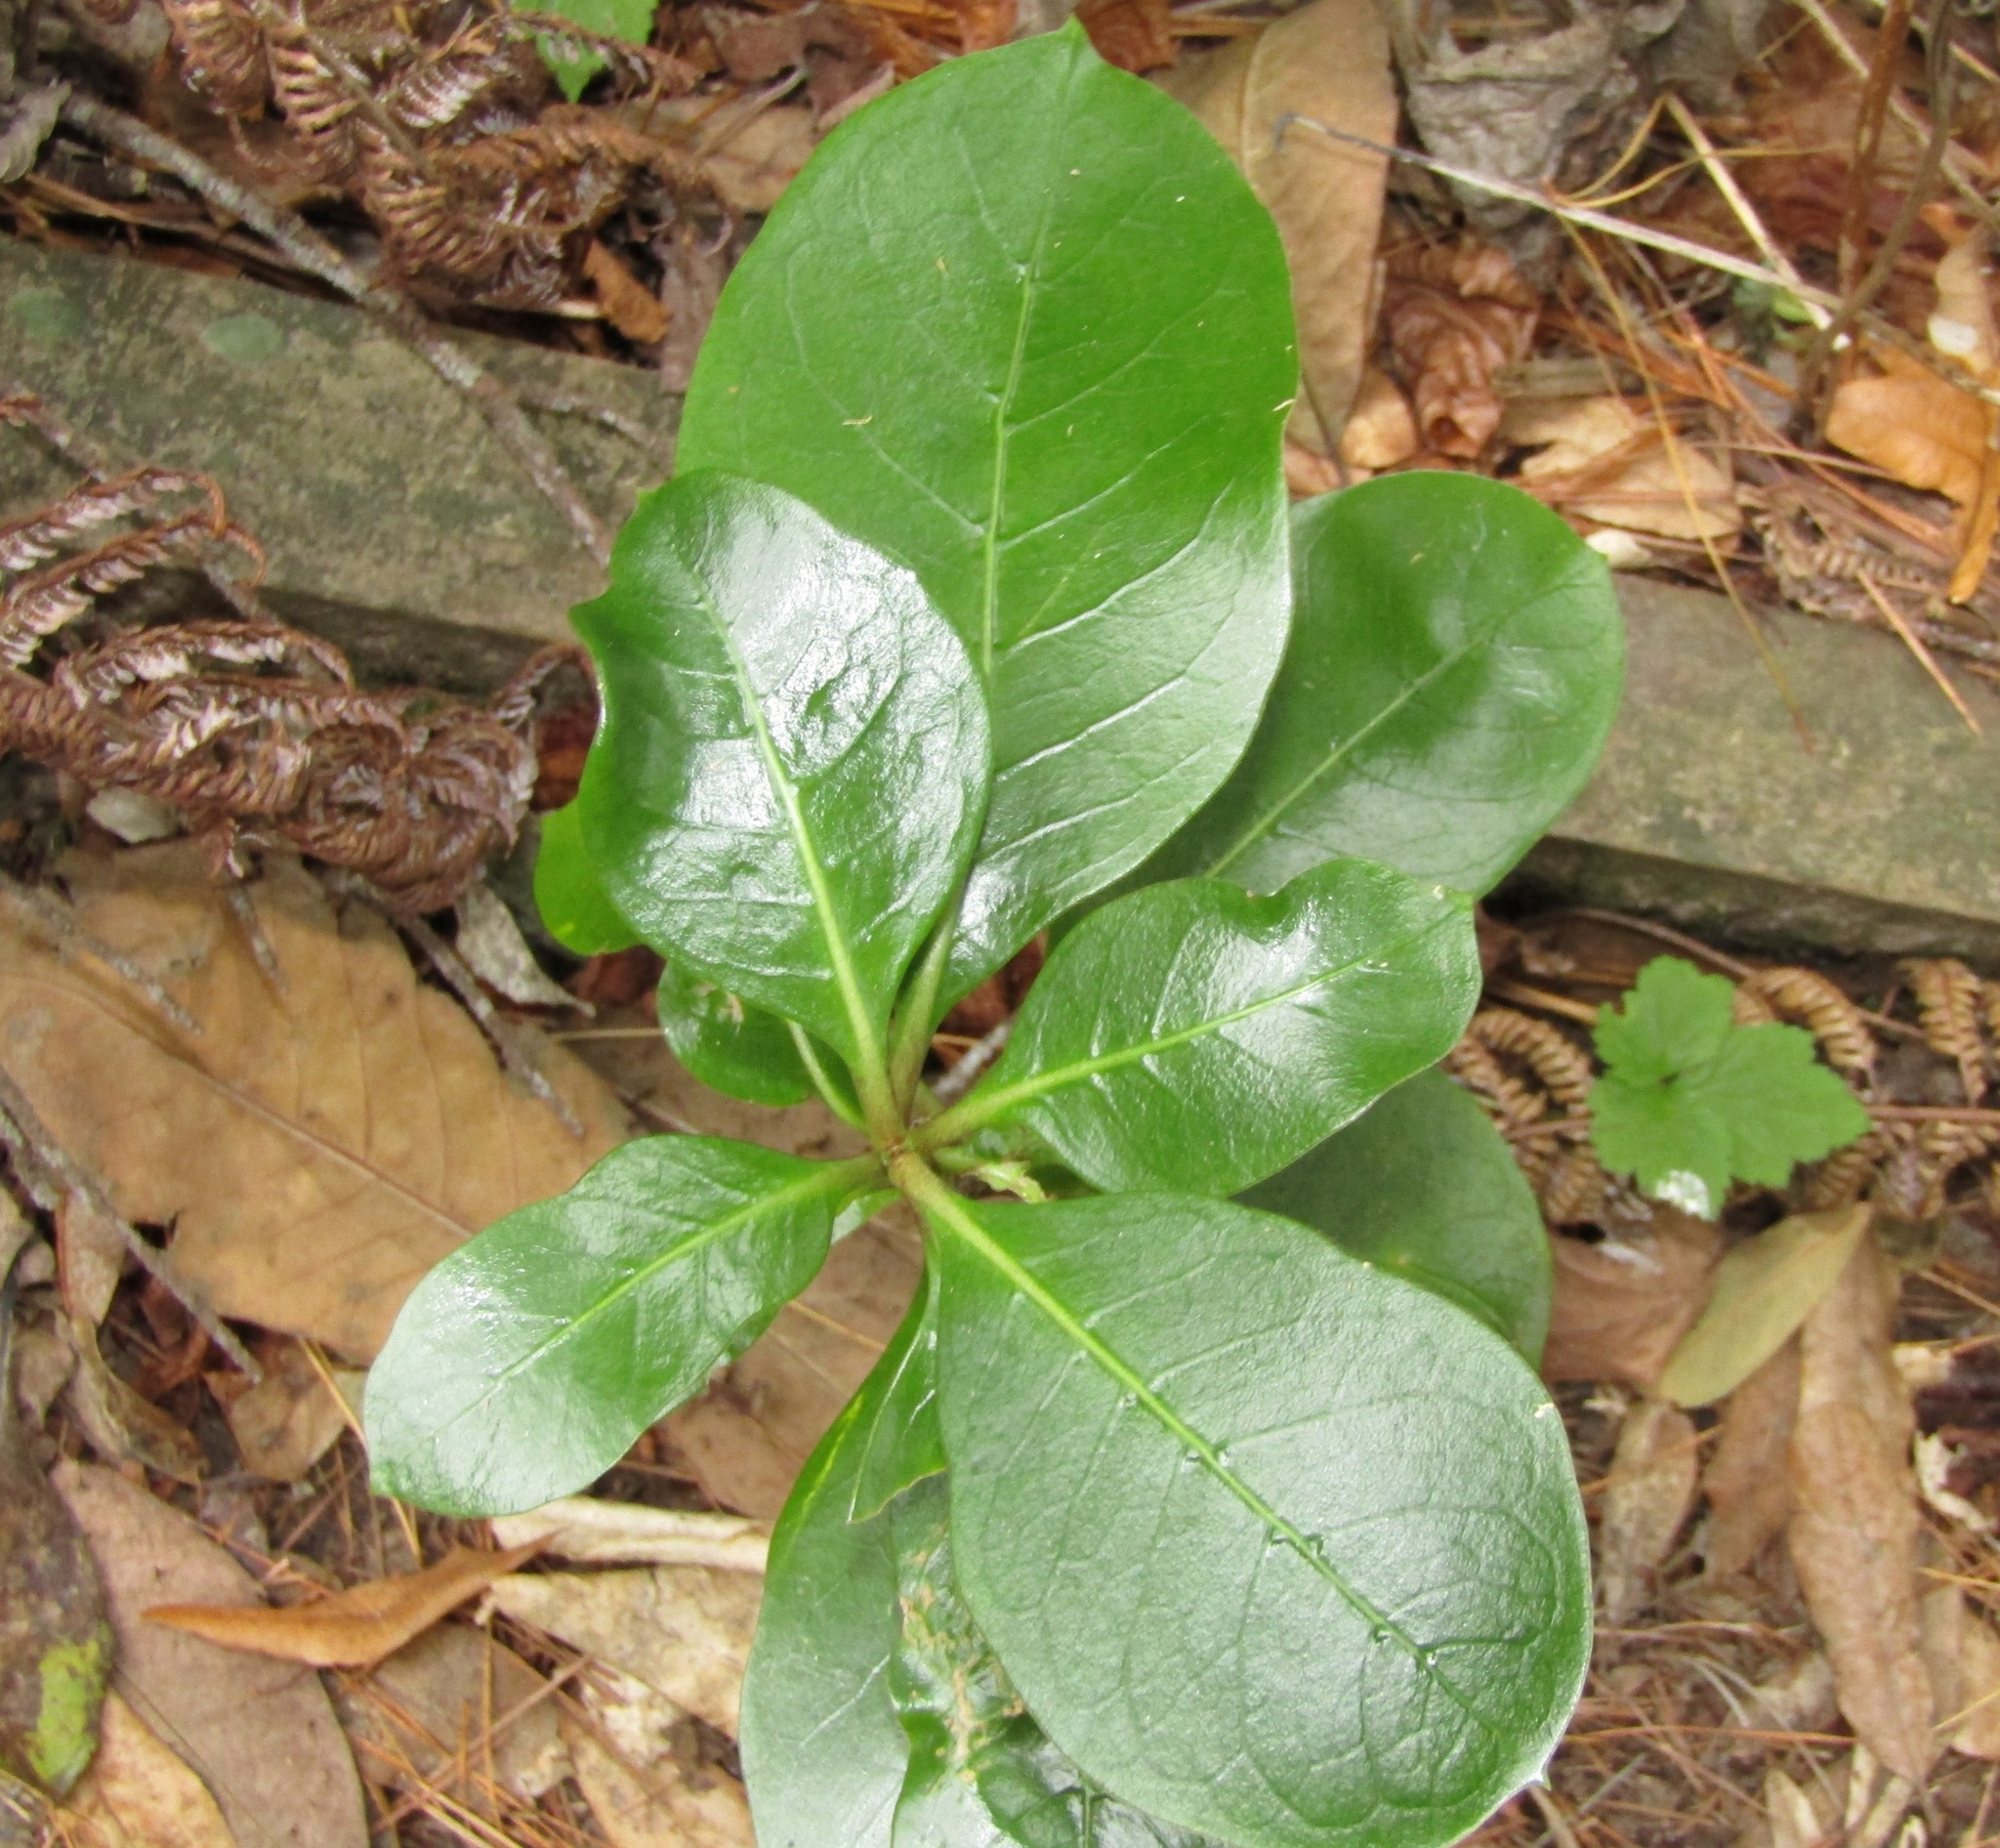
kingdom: Plantae
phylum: Tracheophyta
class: Magnoliopsida
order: Gentianales
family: Rubiaceae
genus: Coprosma
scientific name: Coprosma lucida
